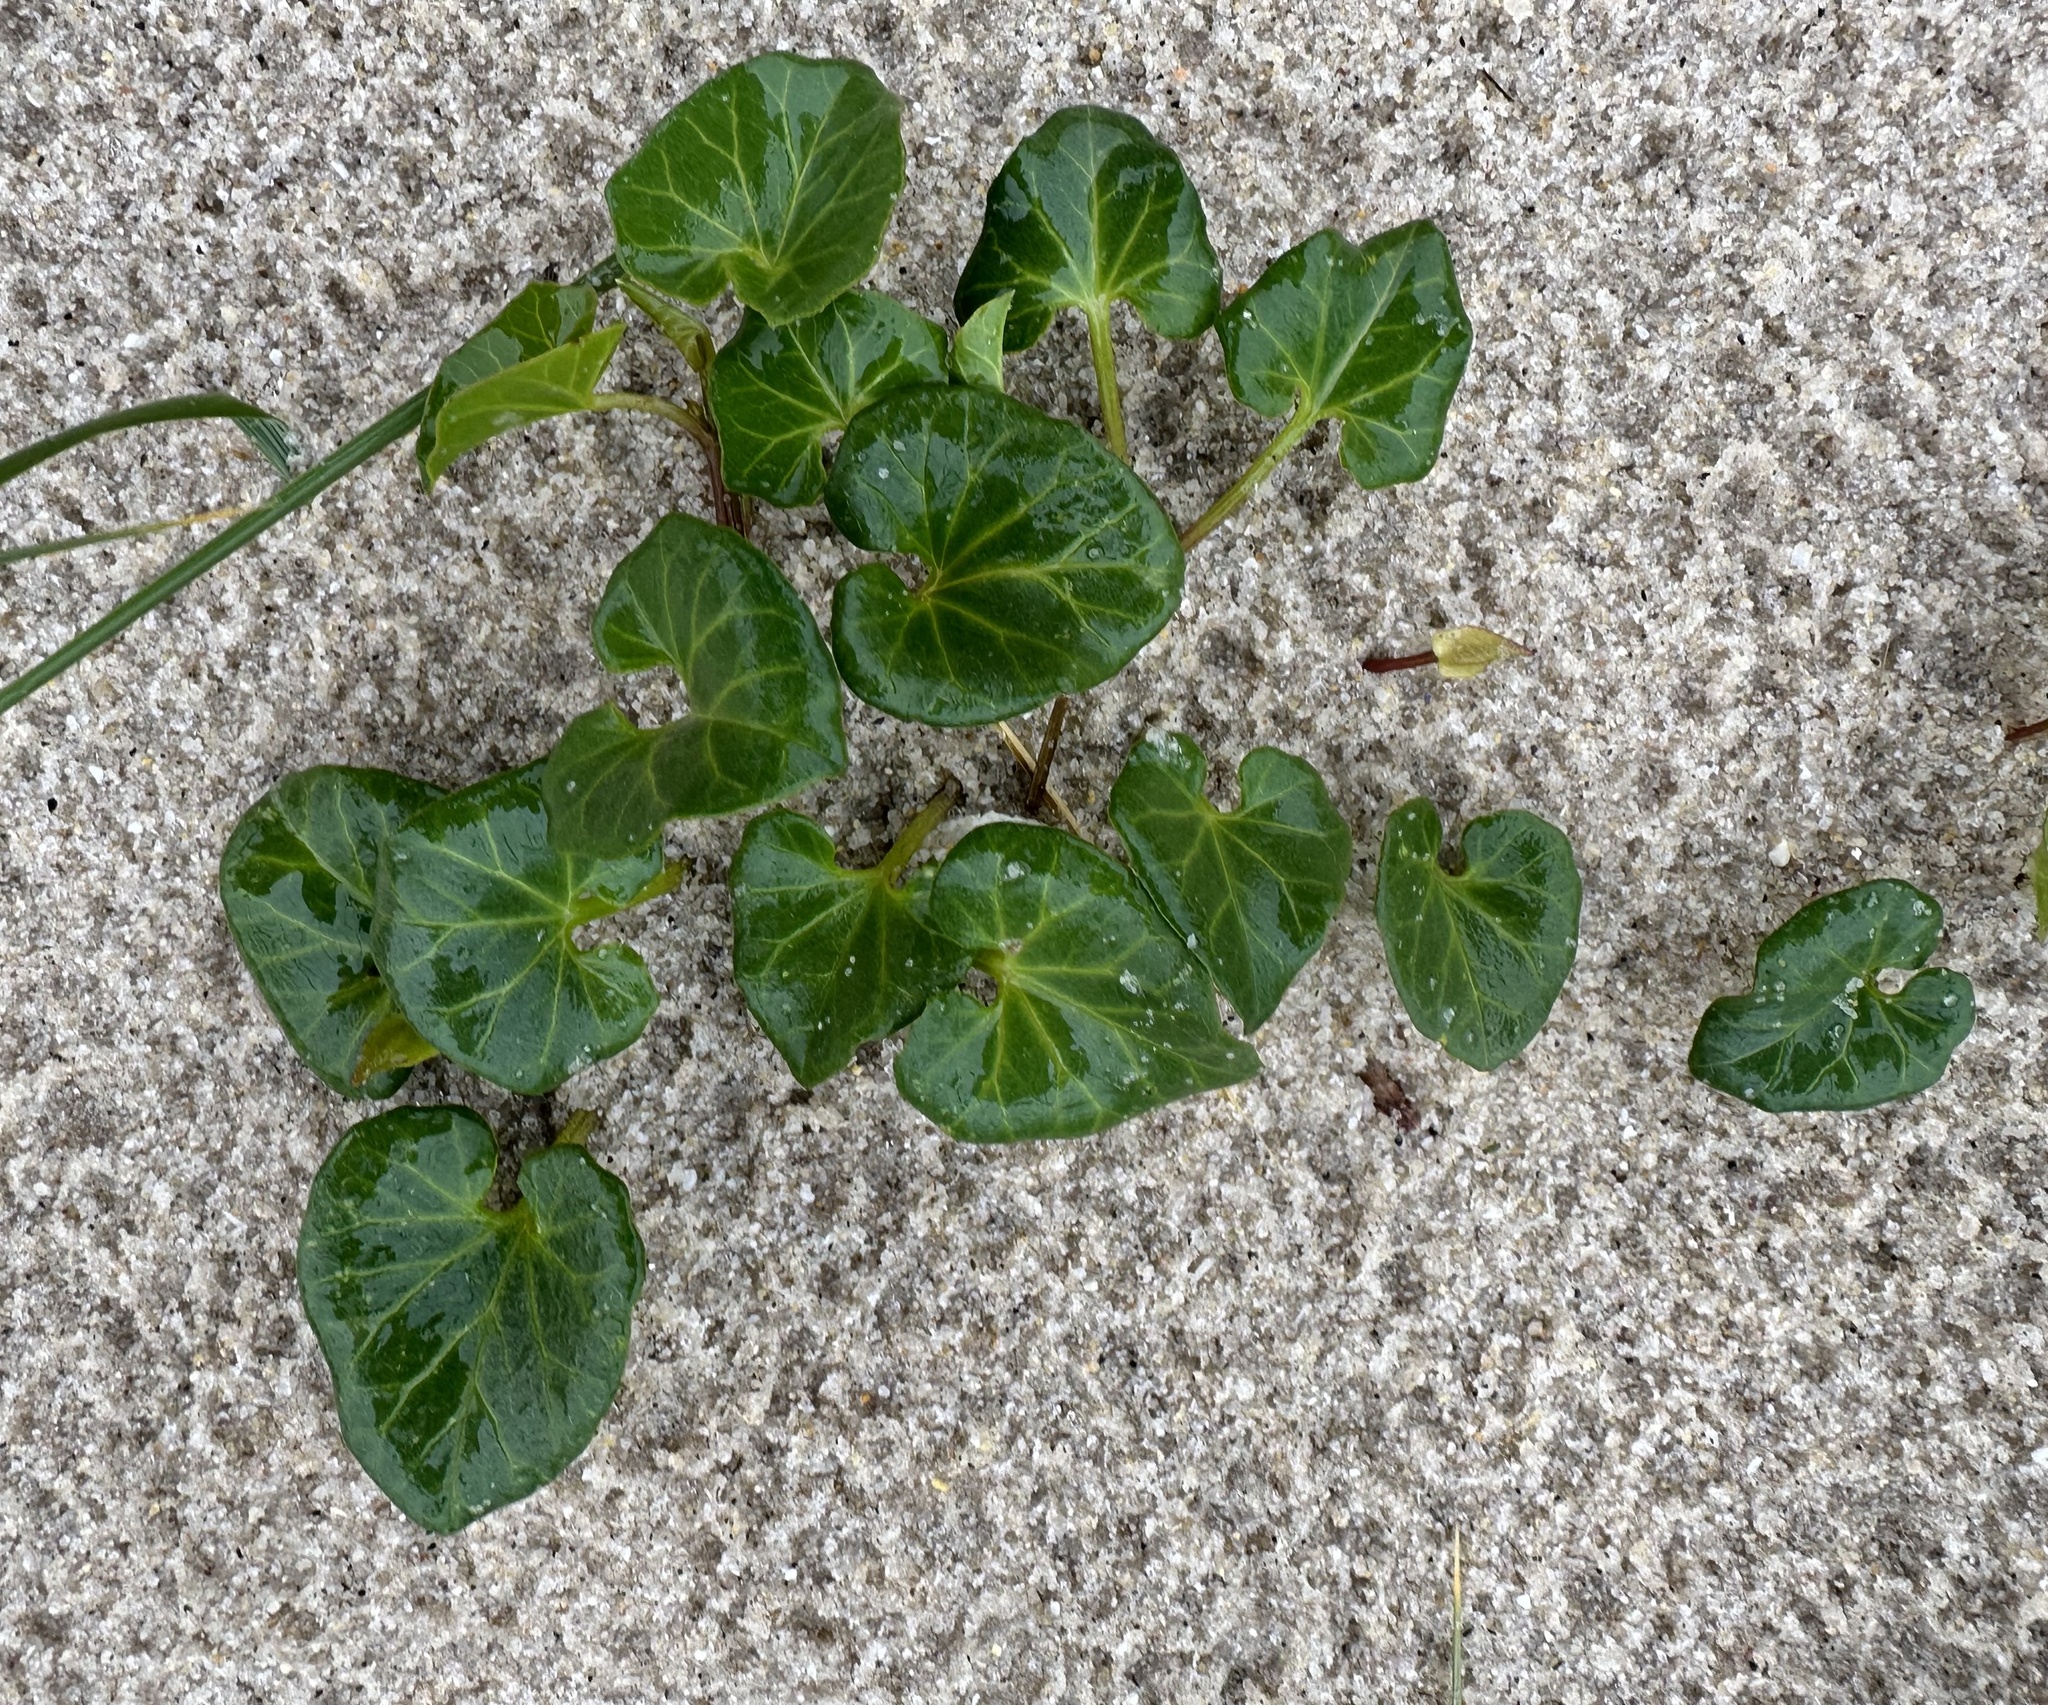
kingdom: Plantae
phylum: Tracheophyta
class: Magnoliopsida
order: Solanales
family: Convolvulaceae
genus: Calystegia
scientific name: Calystegia soldanella
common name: Sea bindweed
